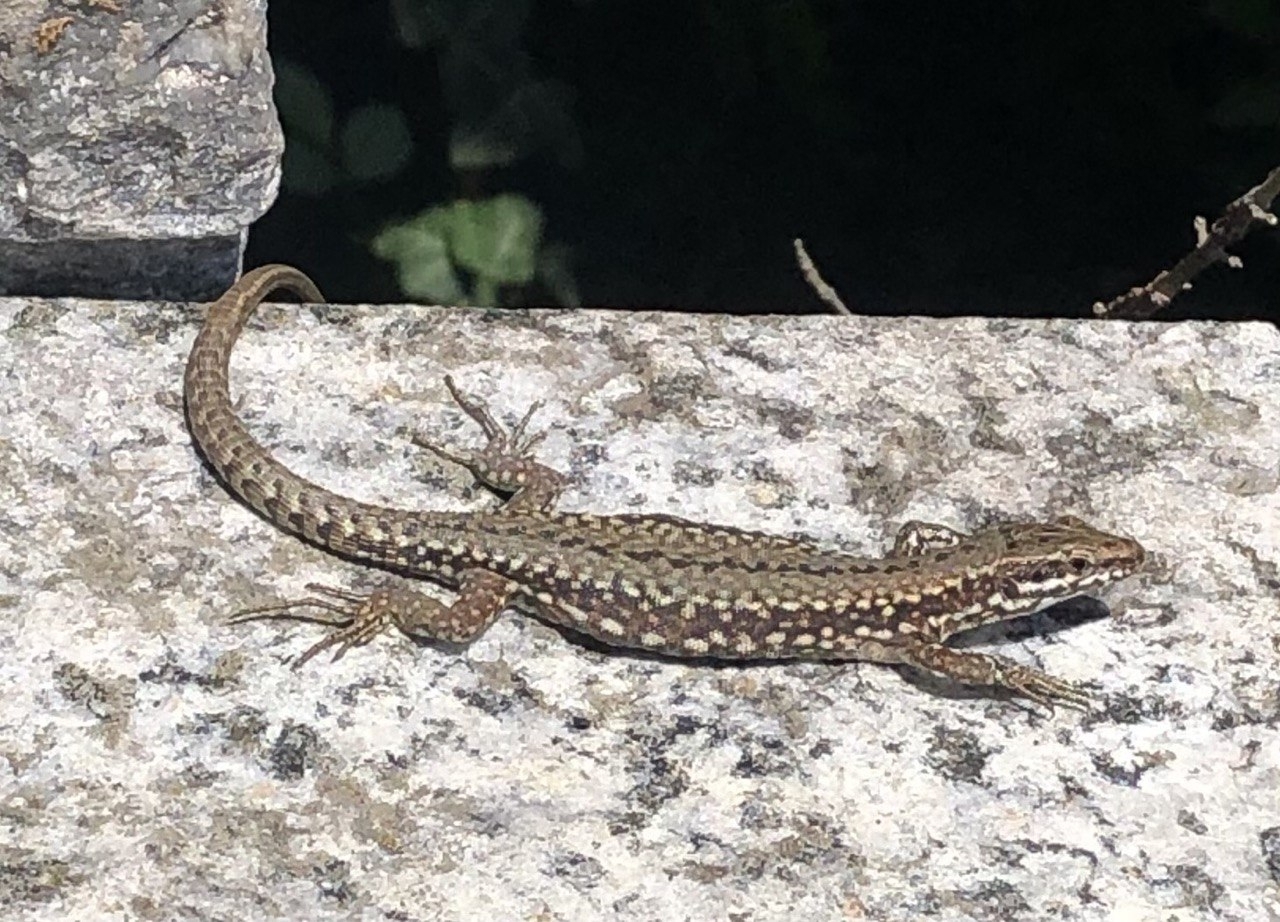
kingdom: Animalia
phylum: Chordata
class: Squamata
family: Lacertidae
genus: Podarcis
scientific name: Podarcis muralis
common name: Common wall lizard
